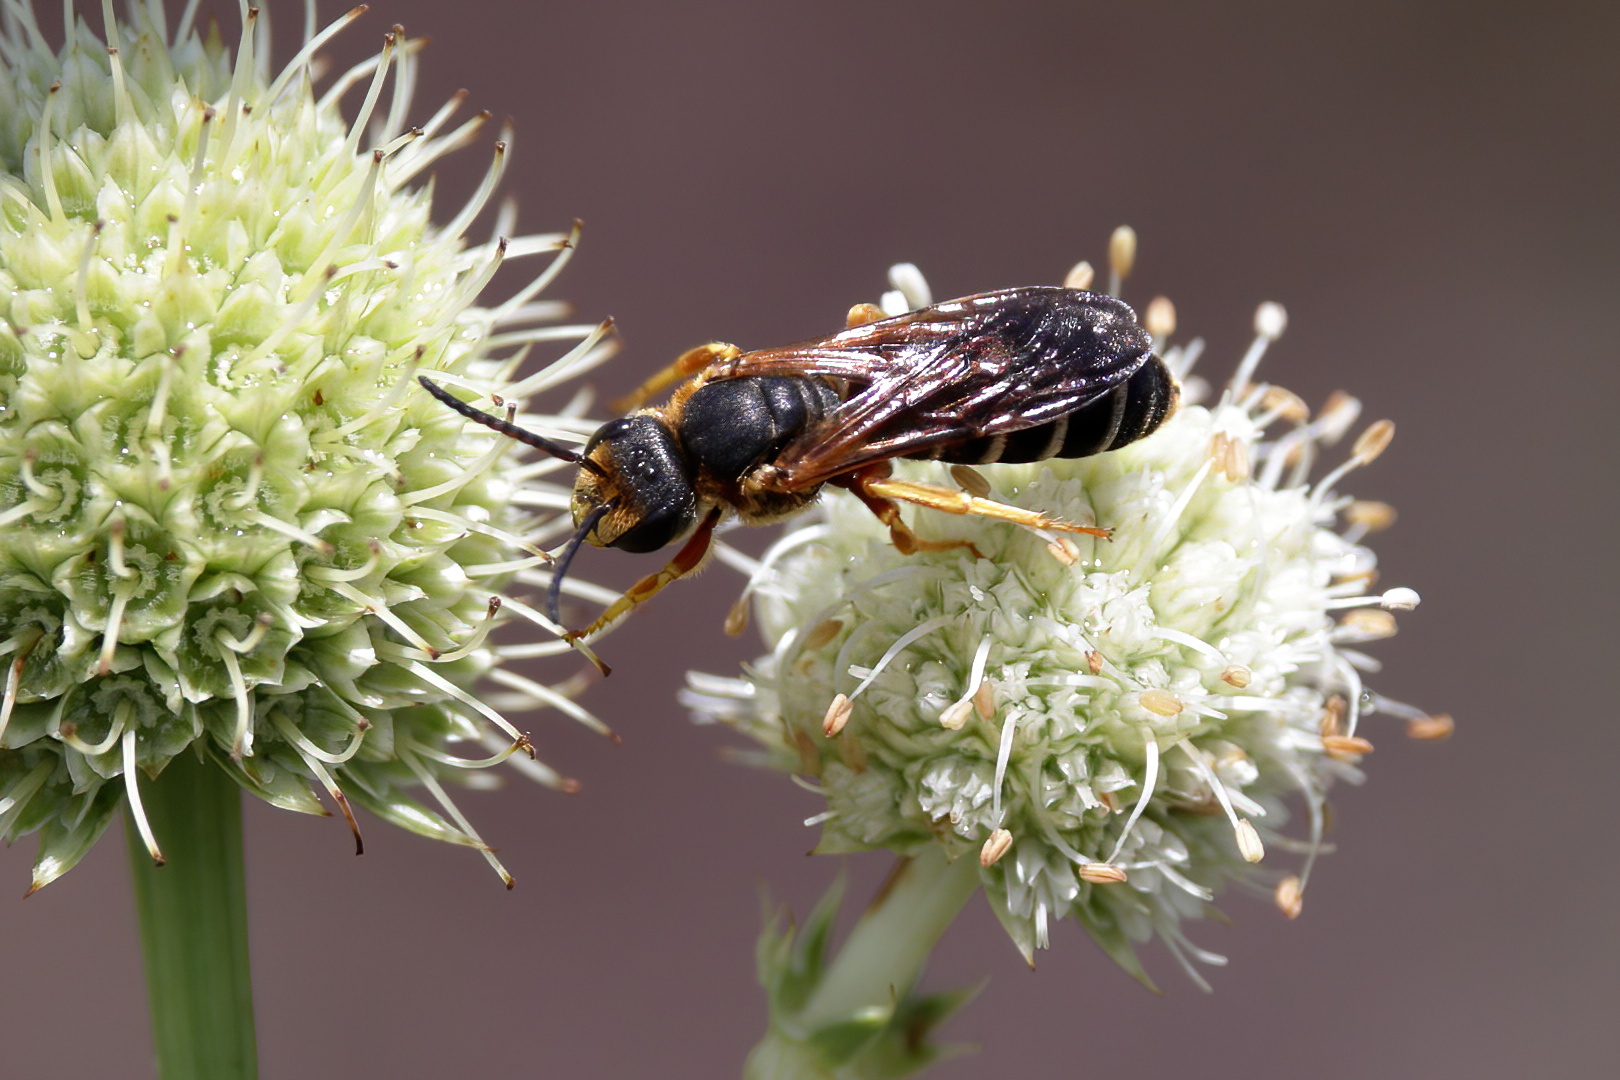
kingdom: Animalia
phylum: Arthropoda
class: Insecta
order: Hymenoptera
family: Halictidae
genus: Halictus
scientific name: Halictus parallelus
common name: Parallel-striped sweat bee
